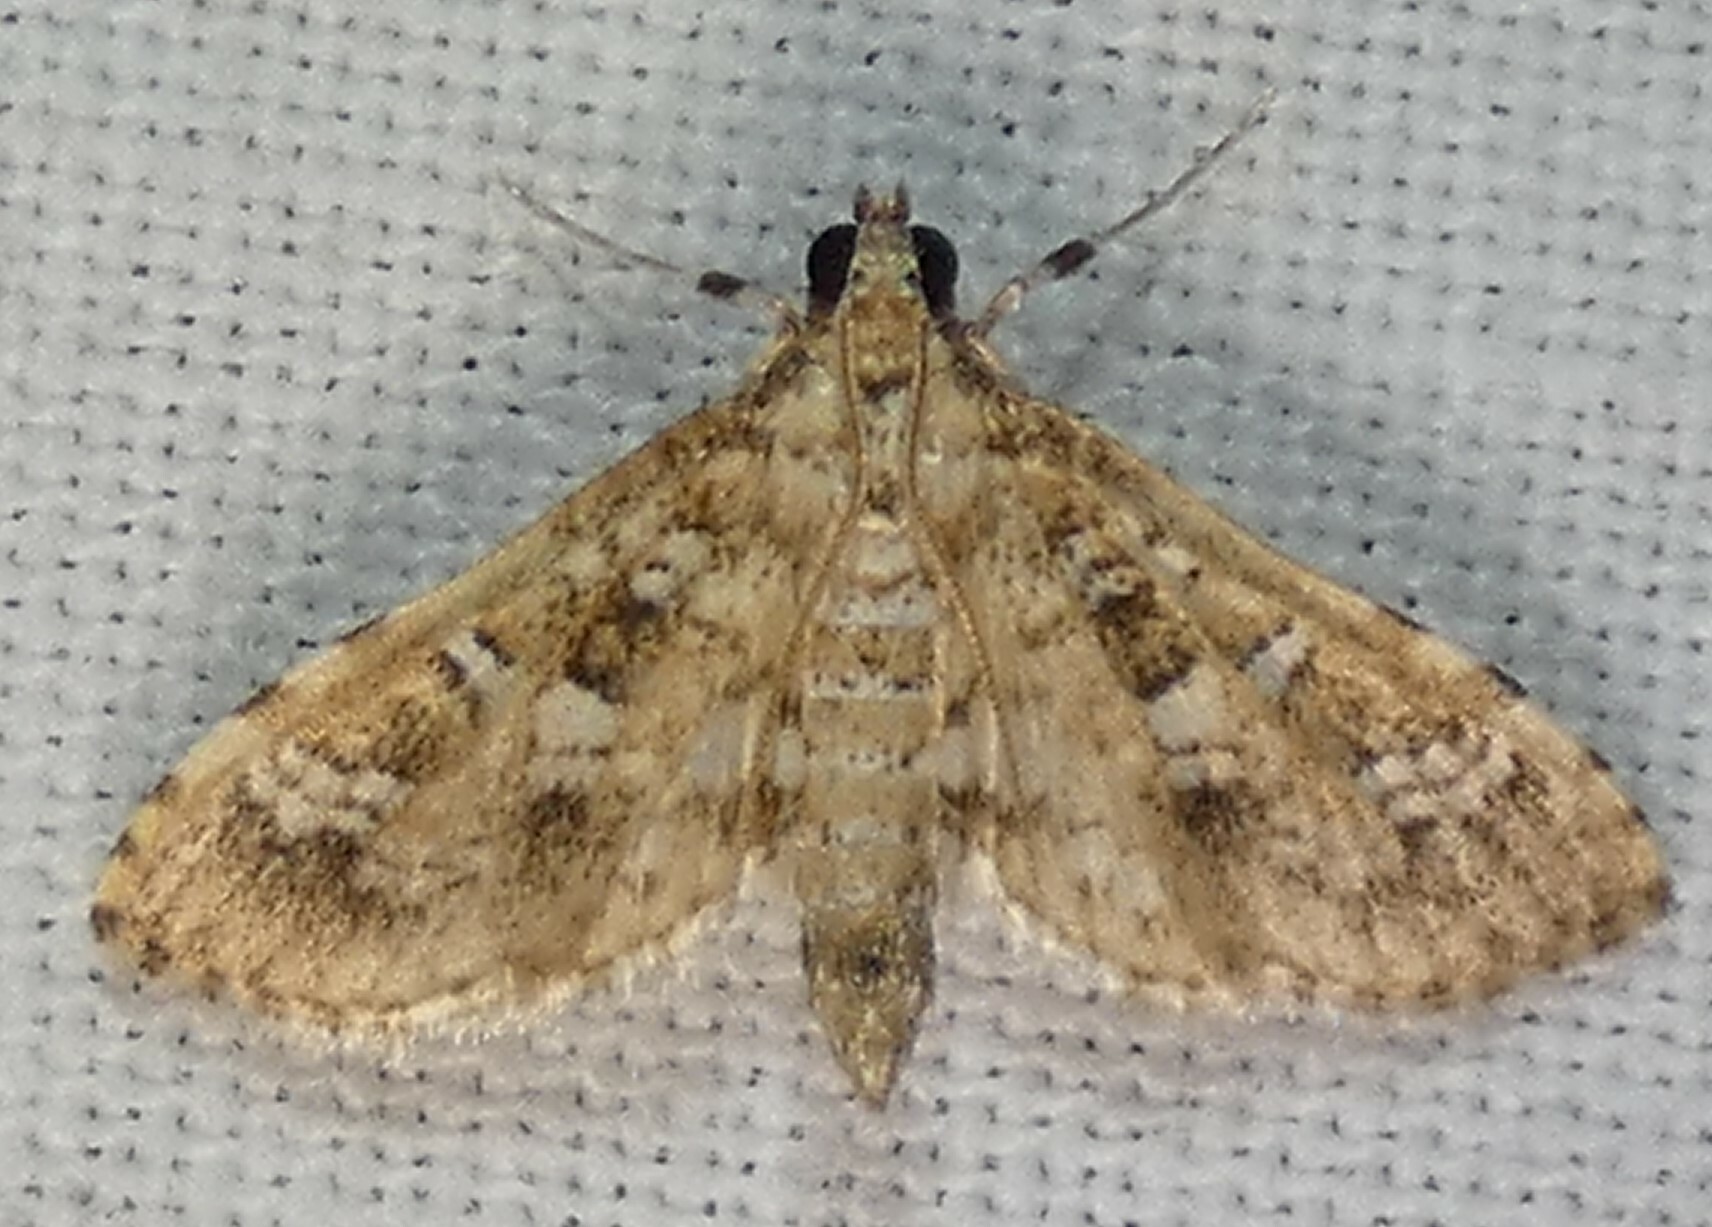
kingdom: Animalia
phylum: Arthropoda
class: Insecta
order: Lepidoptera
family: Crambidae
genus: Samea
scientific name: Samea multiplicalis
